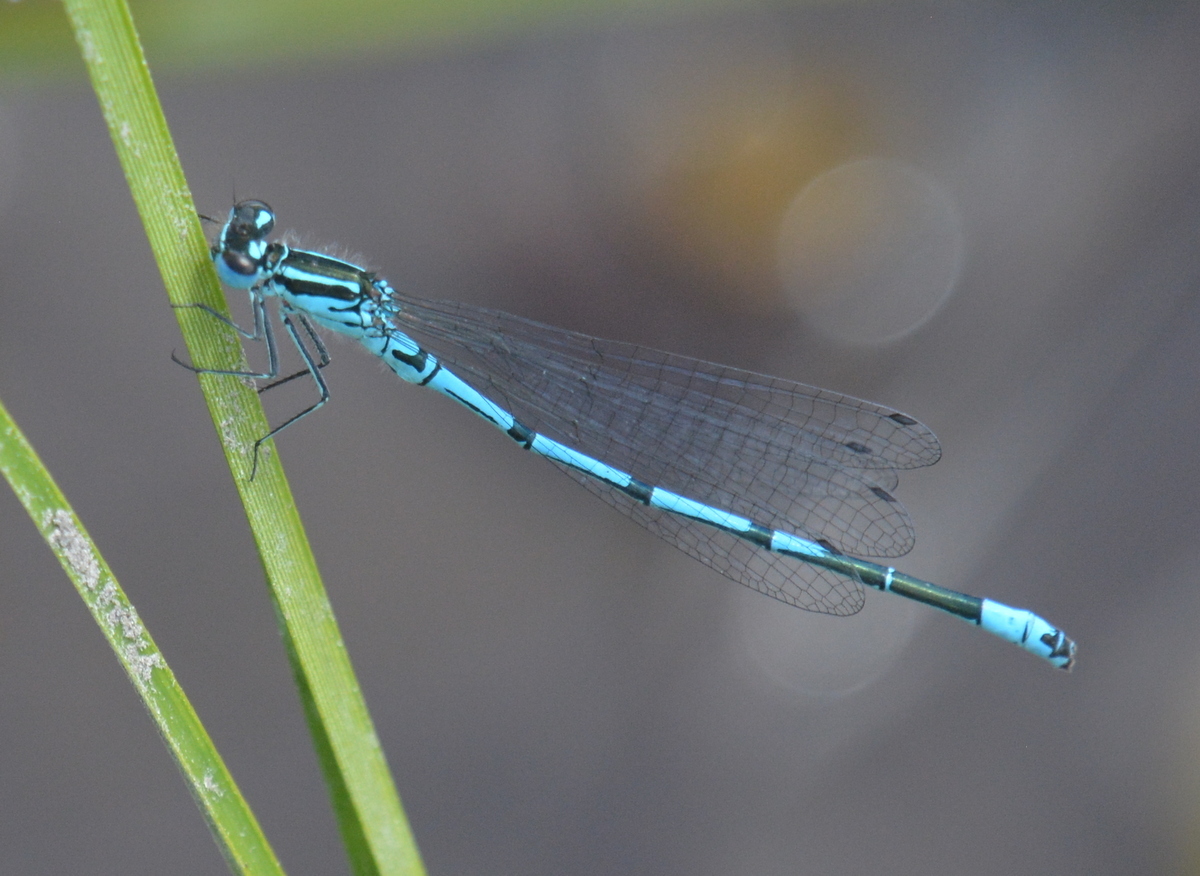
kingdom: Animalia
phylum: Arthropoda
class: Insecta
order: Odonata
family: Coenagrionidae
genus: Coenagrion
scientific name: Coenagrion puella
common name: Azure damselfly
